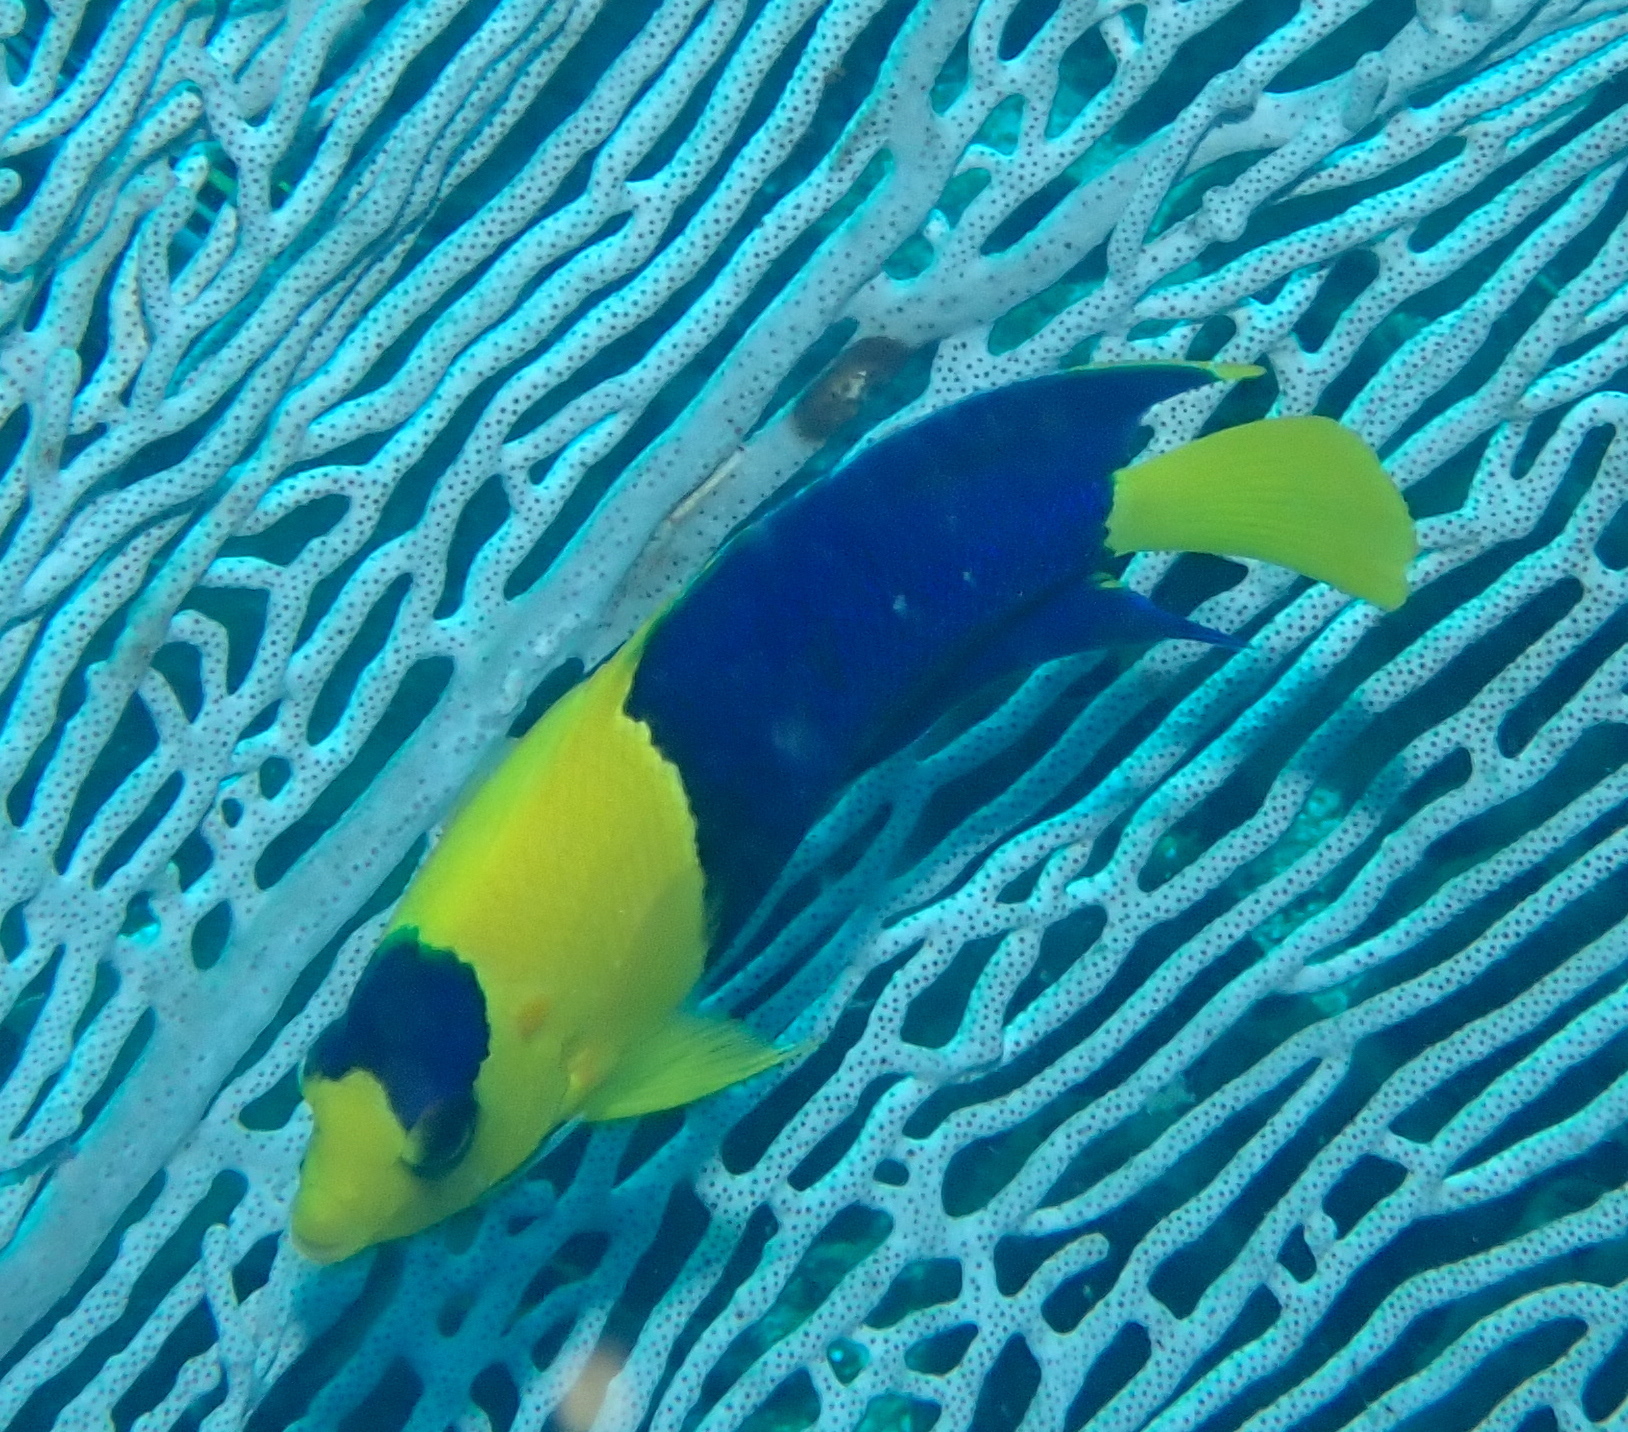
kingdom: Animalia
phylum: Chordata
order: Perciformes
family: Pomacanthidae
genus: Centropyge
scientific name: Centropyge bicolor
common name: Bicolor angelfish
